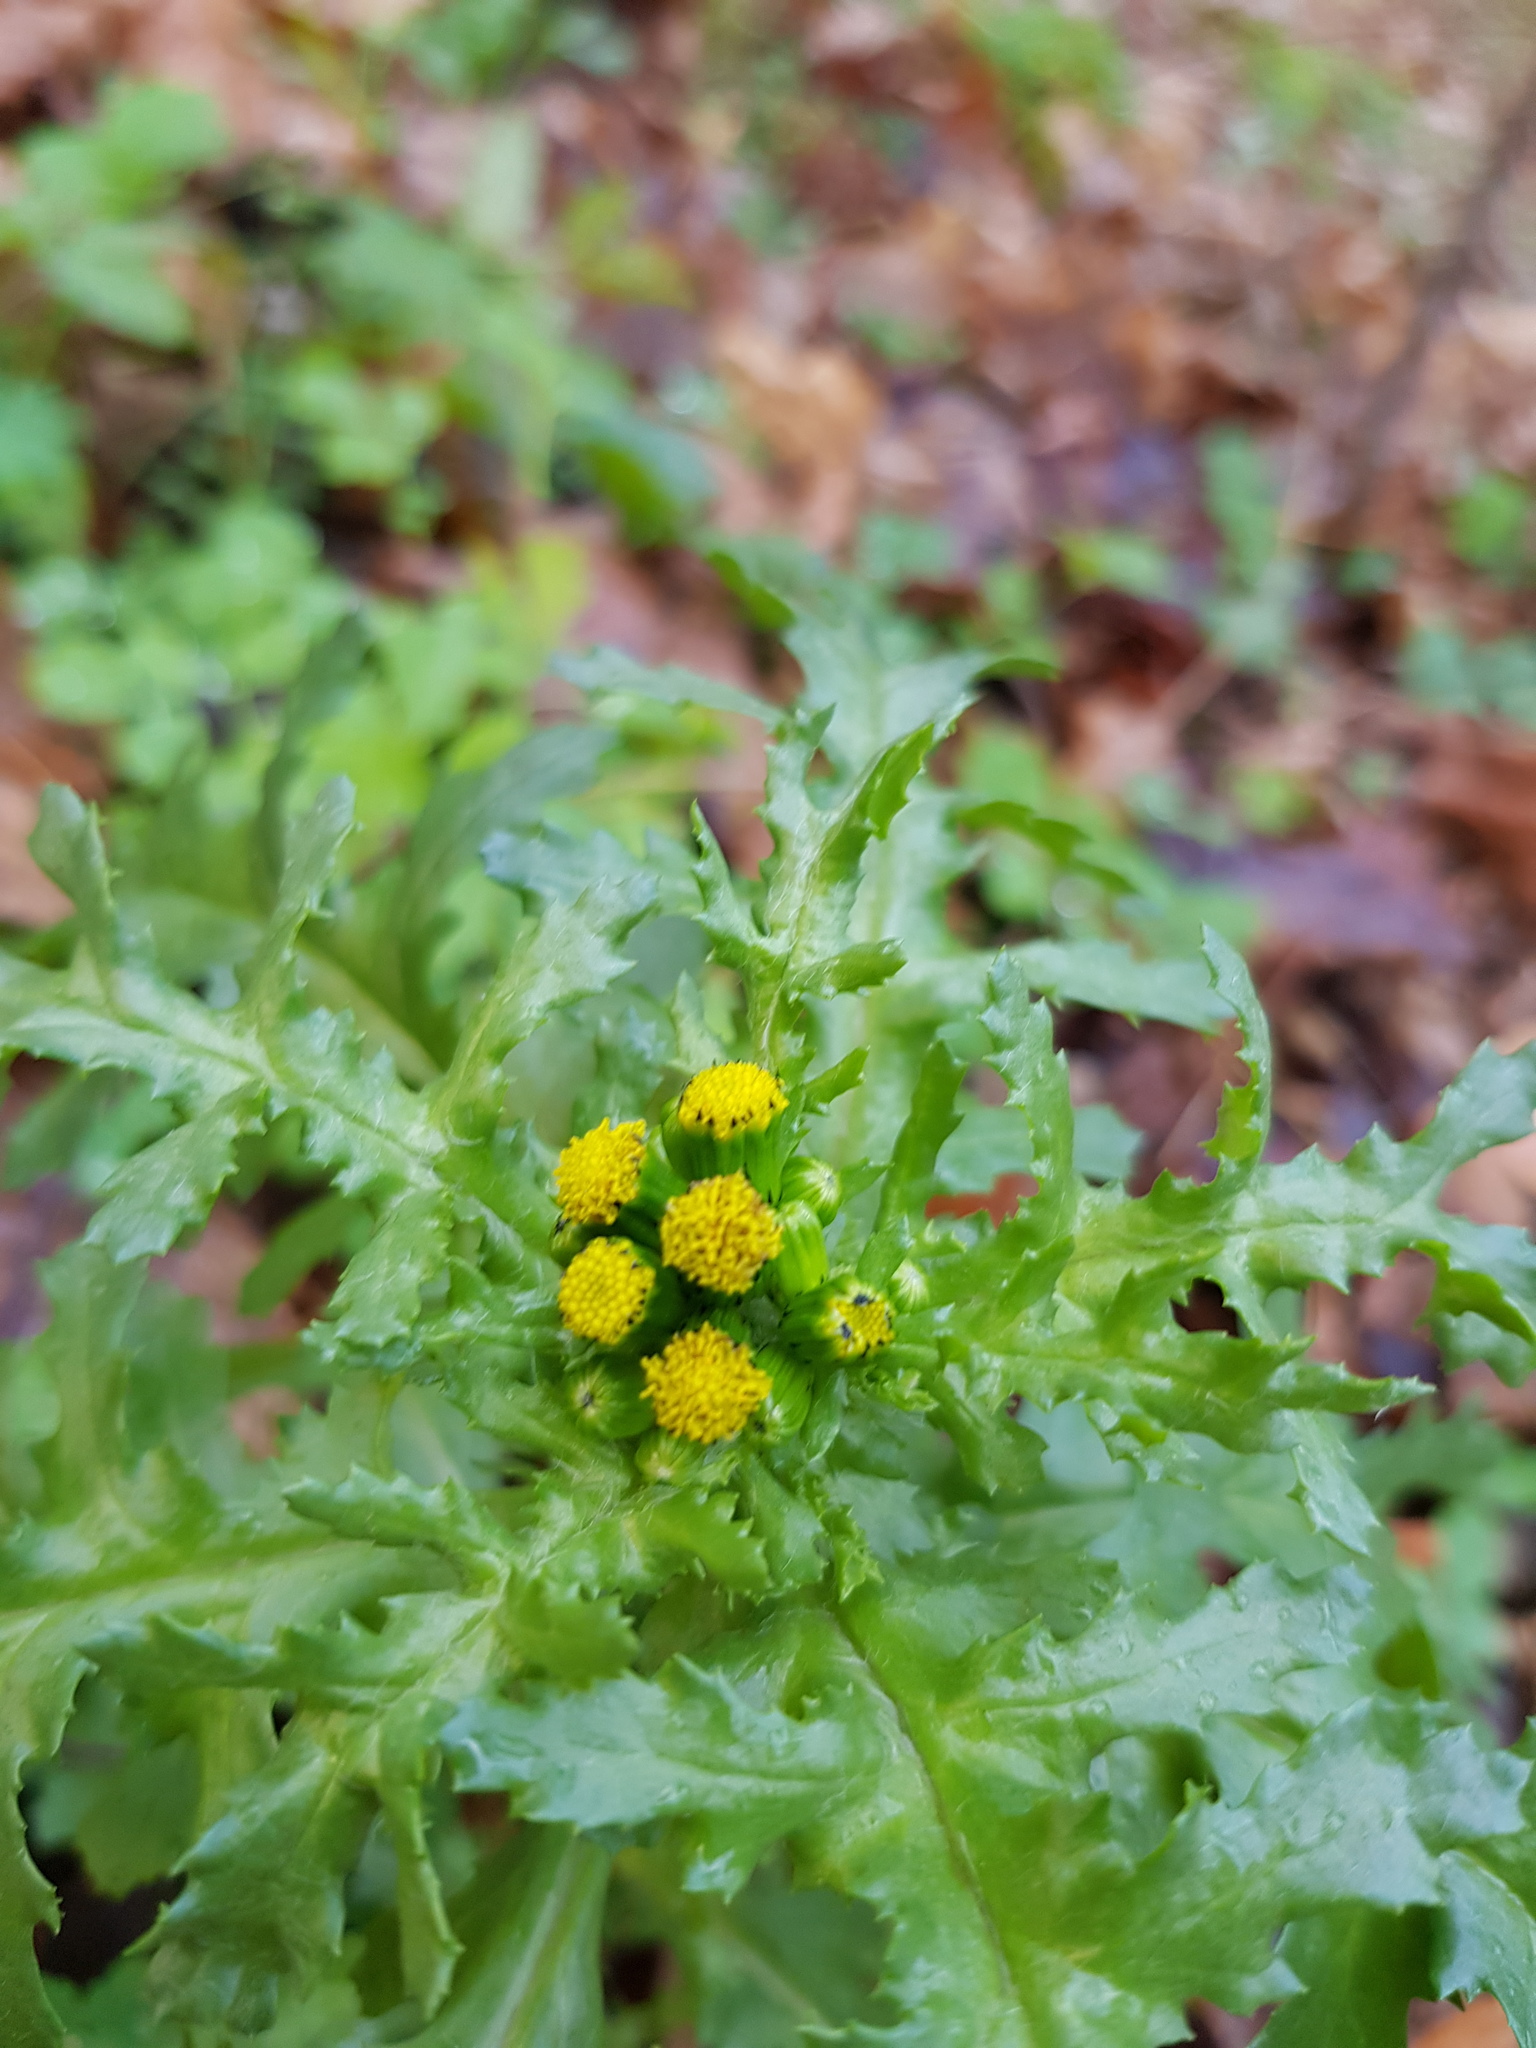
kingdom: Plantae
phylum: Tracheophyta
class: Magnoliopsida
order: Asterales
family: Asteraceae
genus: Senecio
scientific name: Senecio vulgaris
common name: Old-man-in-the-spring
